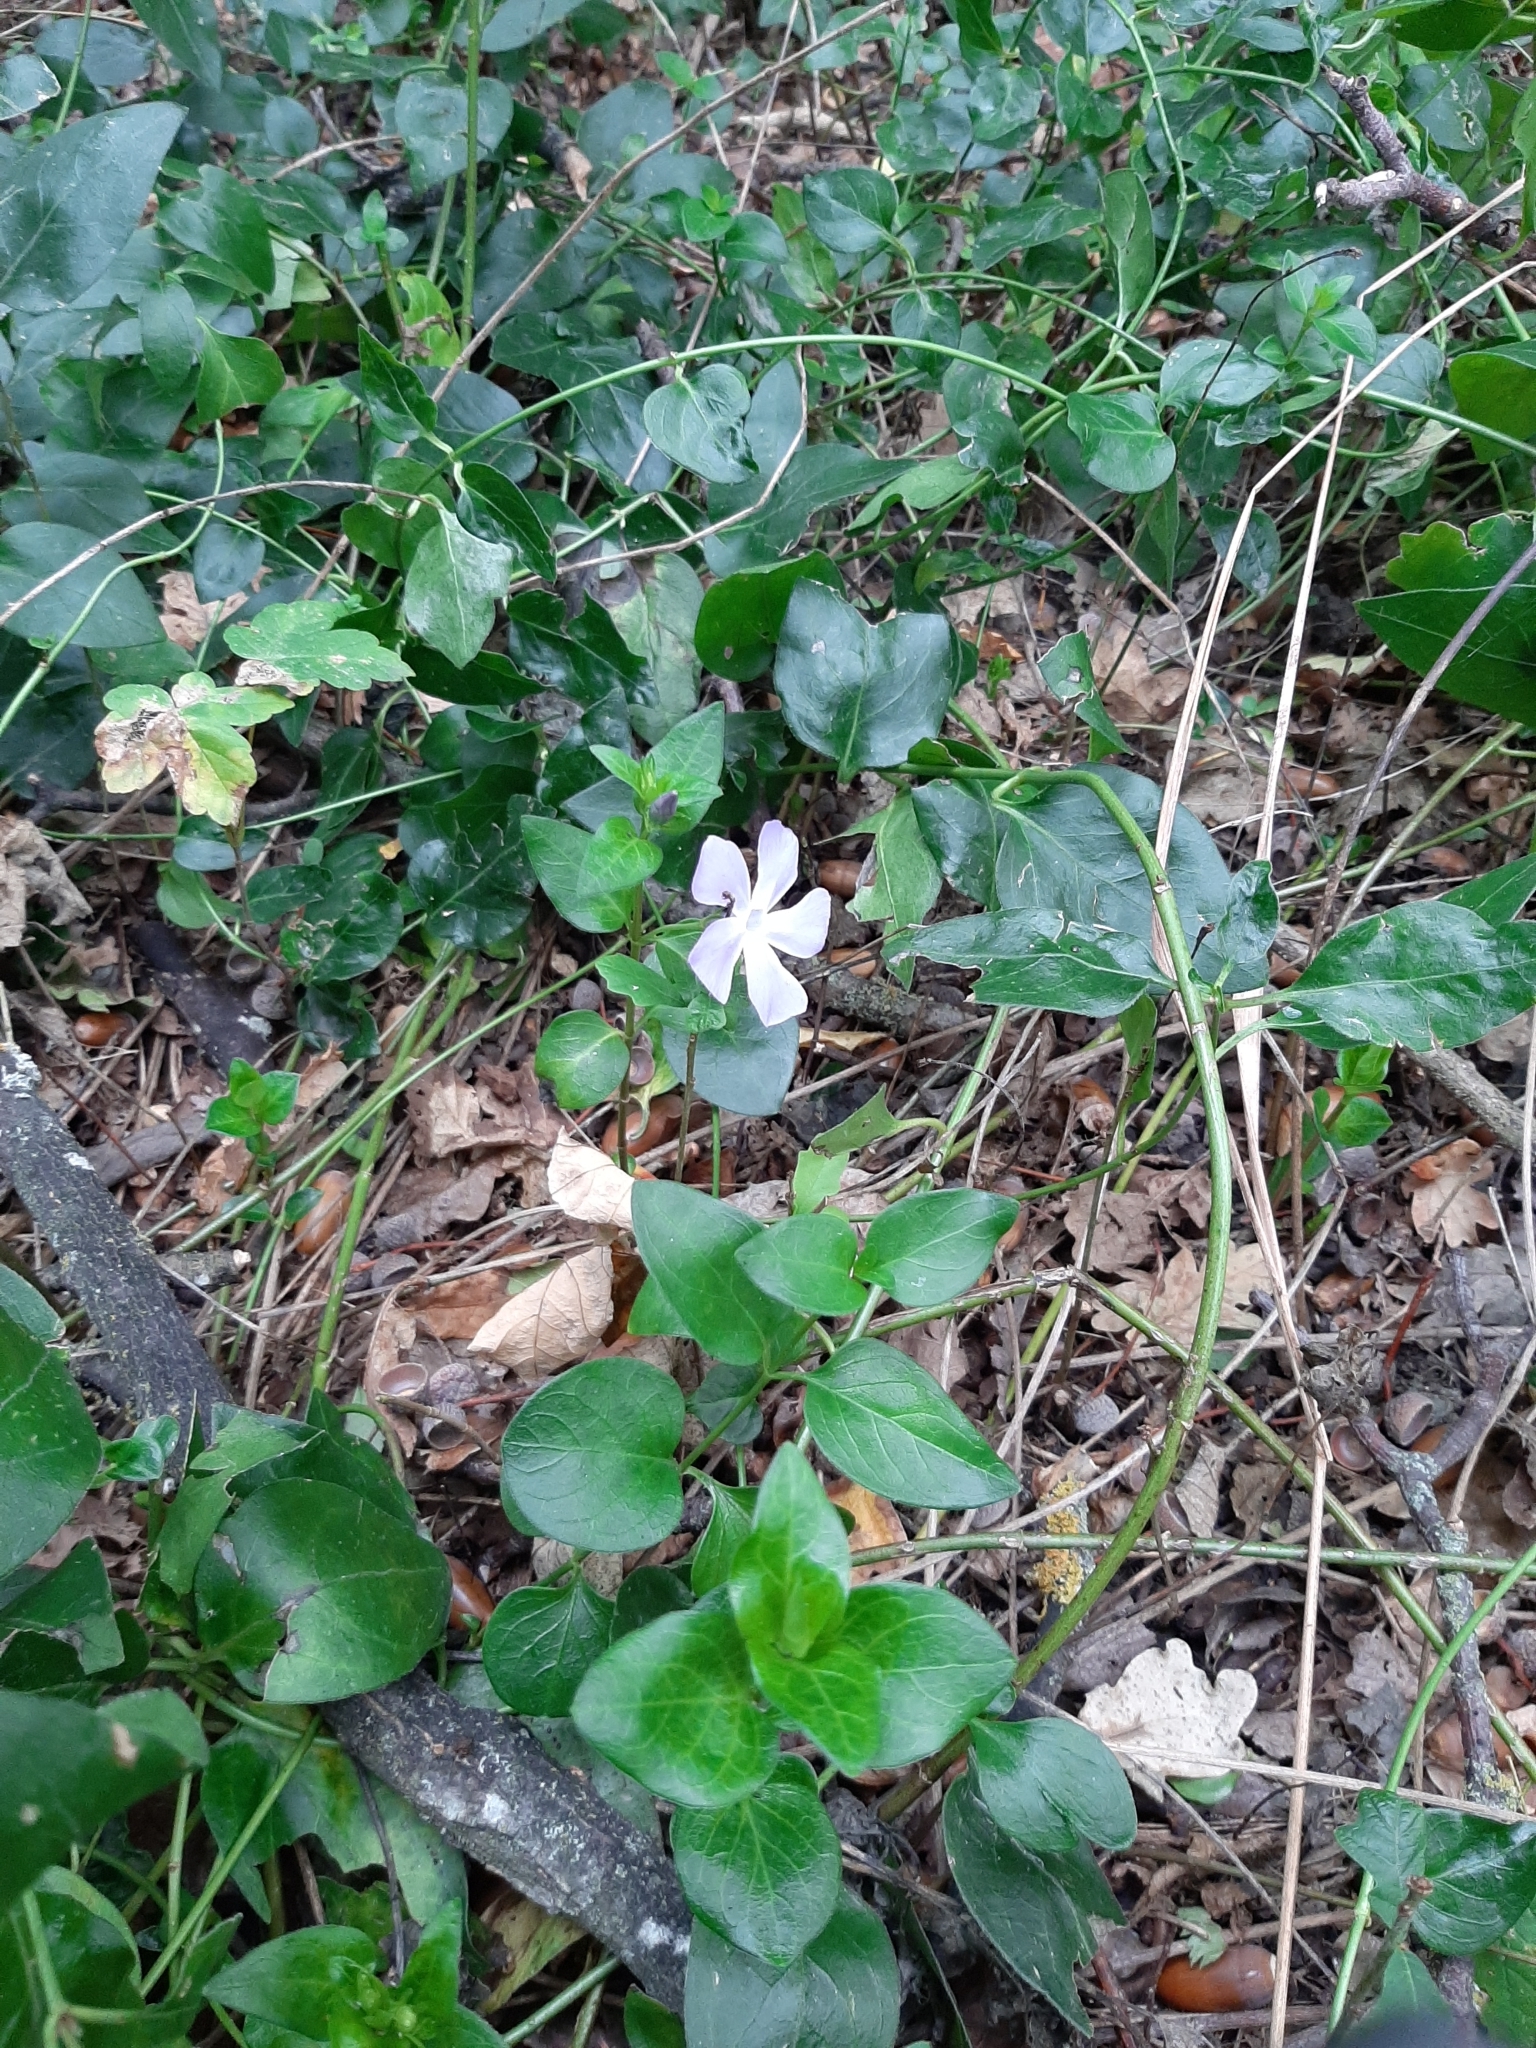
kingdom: Plantae
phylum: Tracheophyta
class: Magnoliopsida
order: Gentianales
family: Apocynaceae
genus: Vinca
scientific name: Vinca major
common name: Greater periwinkle
